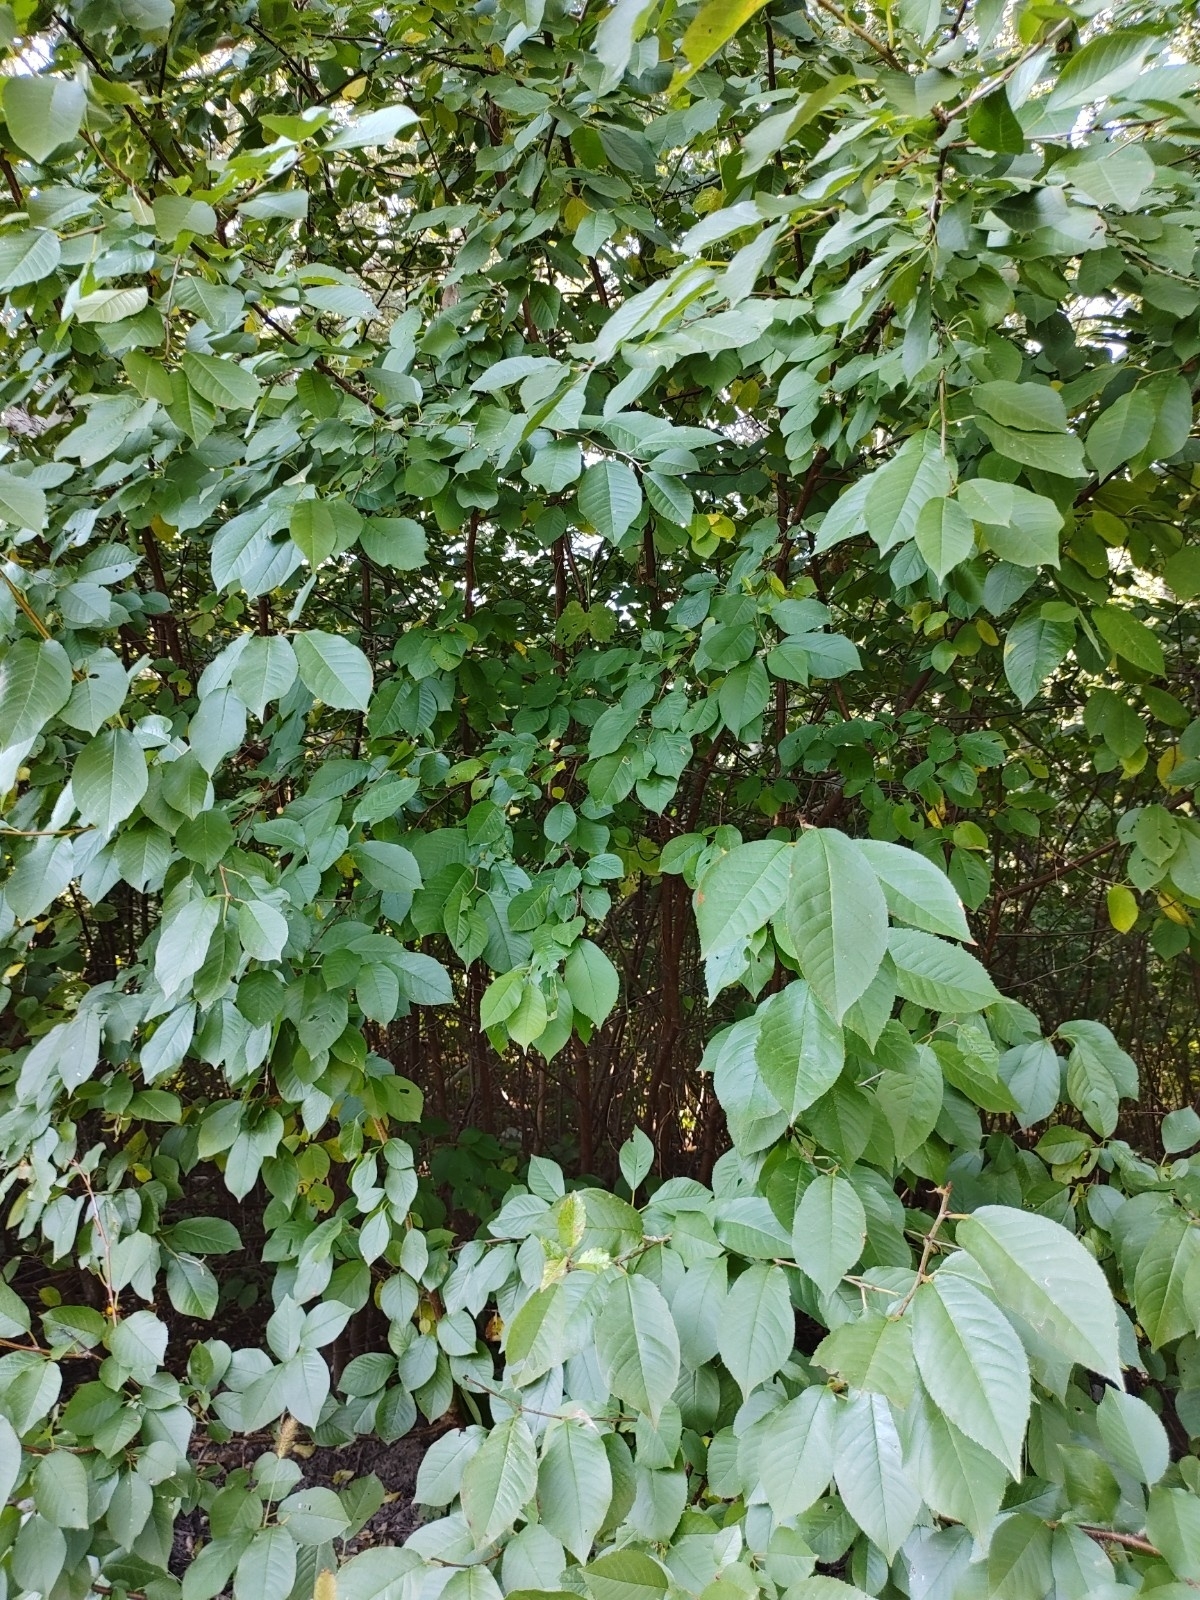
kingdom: Plantae
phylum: Tracheophyta
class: Magnoliopsida
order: Rosales
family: Rosaceae
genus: Prunus
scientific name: Prunus cerasus
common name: Morello cherry
